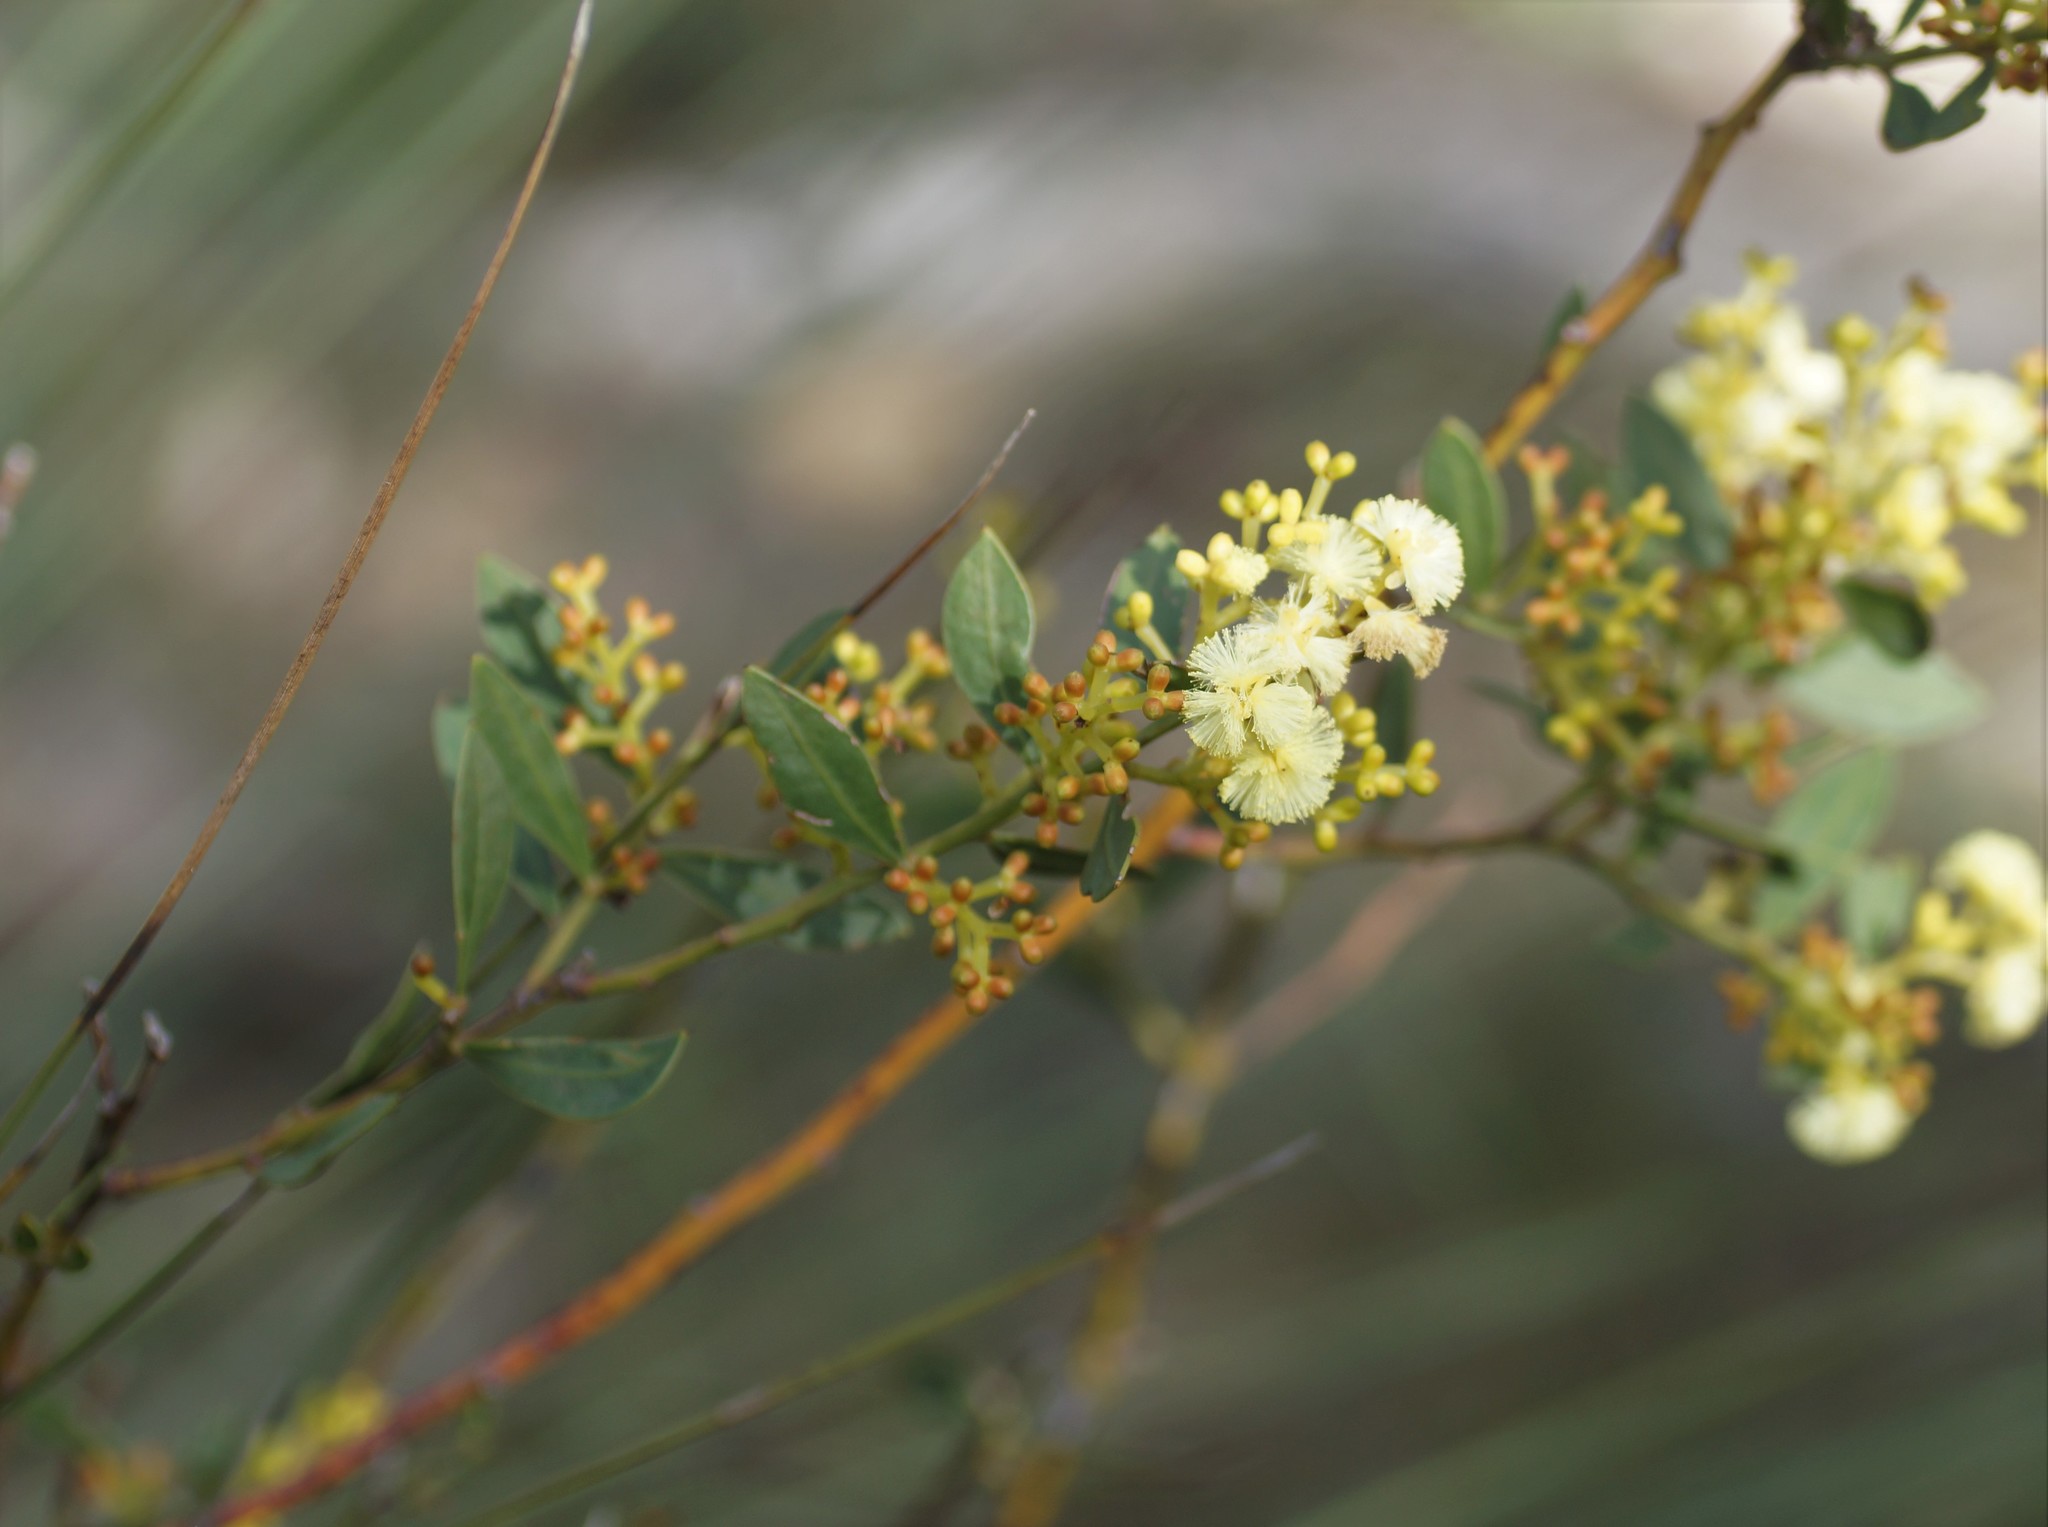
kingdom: Plantae
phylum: Tracheophyta
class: Magnoliopsida
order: Fabales
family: Fabaceae
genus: Acacia
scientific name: Acacia myrtifolia
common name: Myrtle wattle
